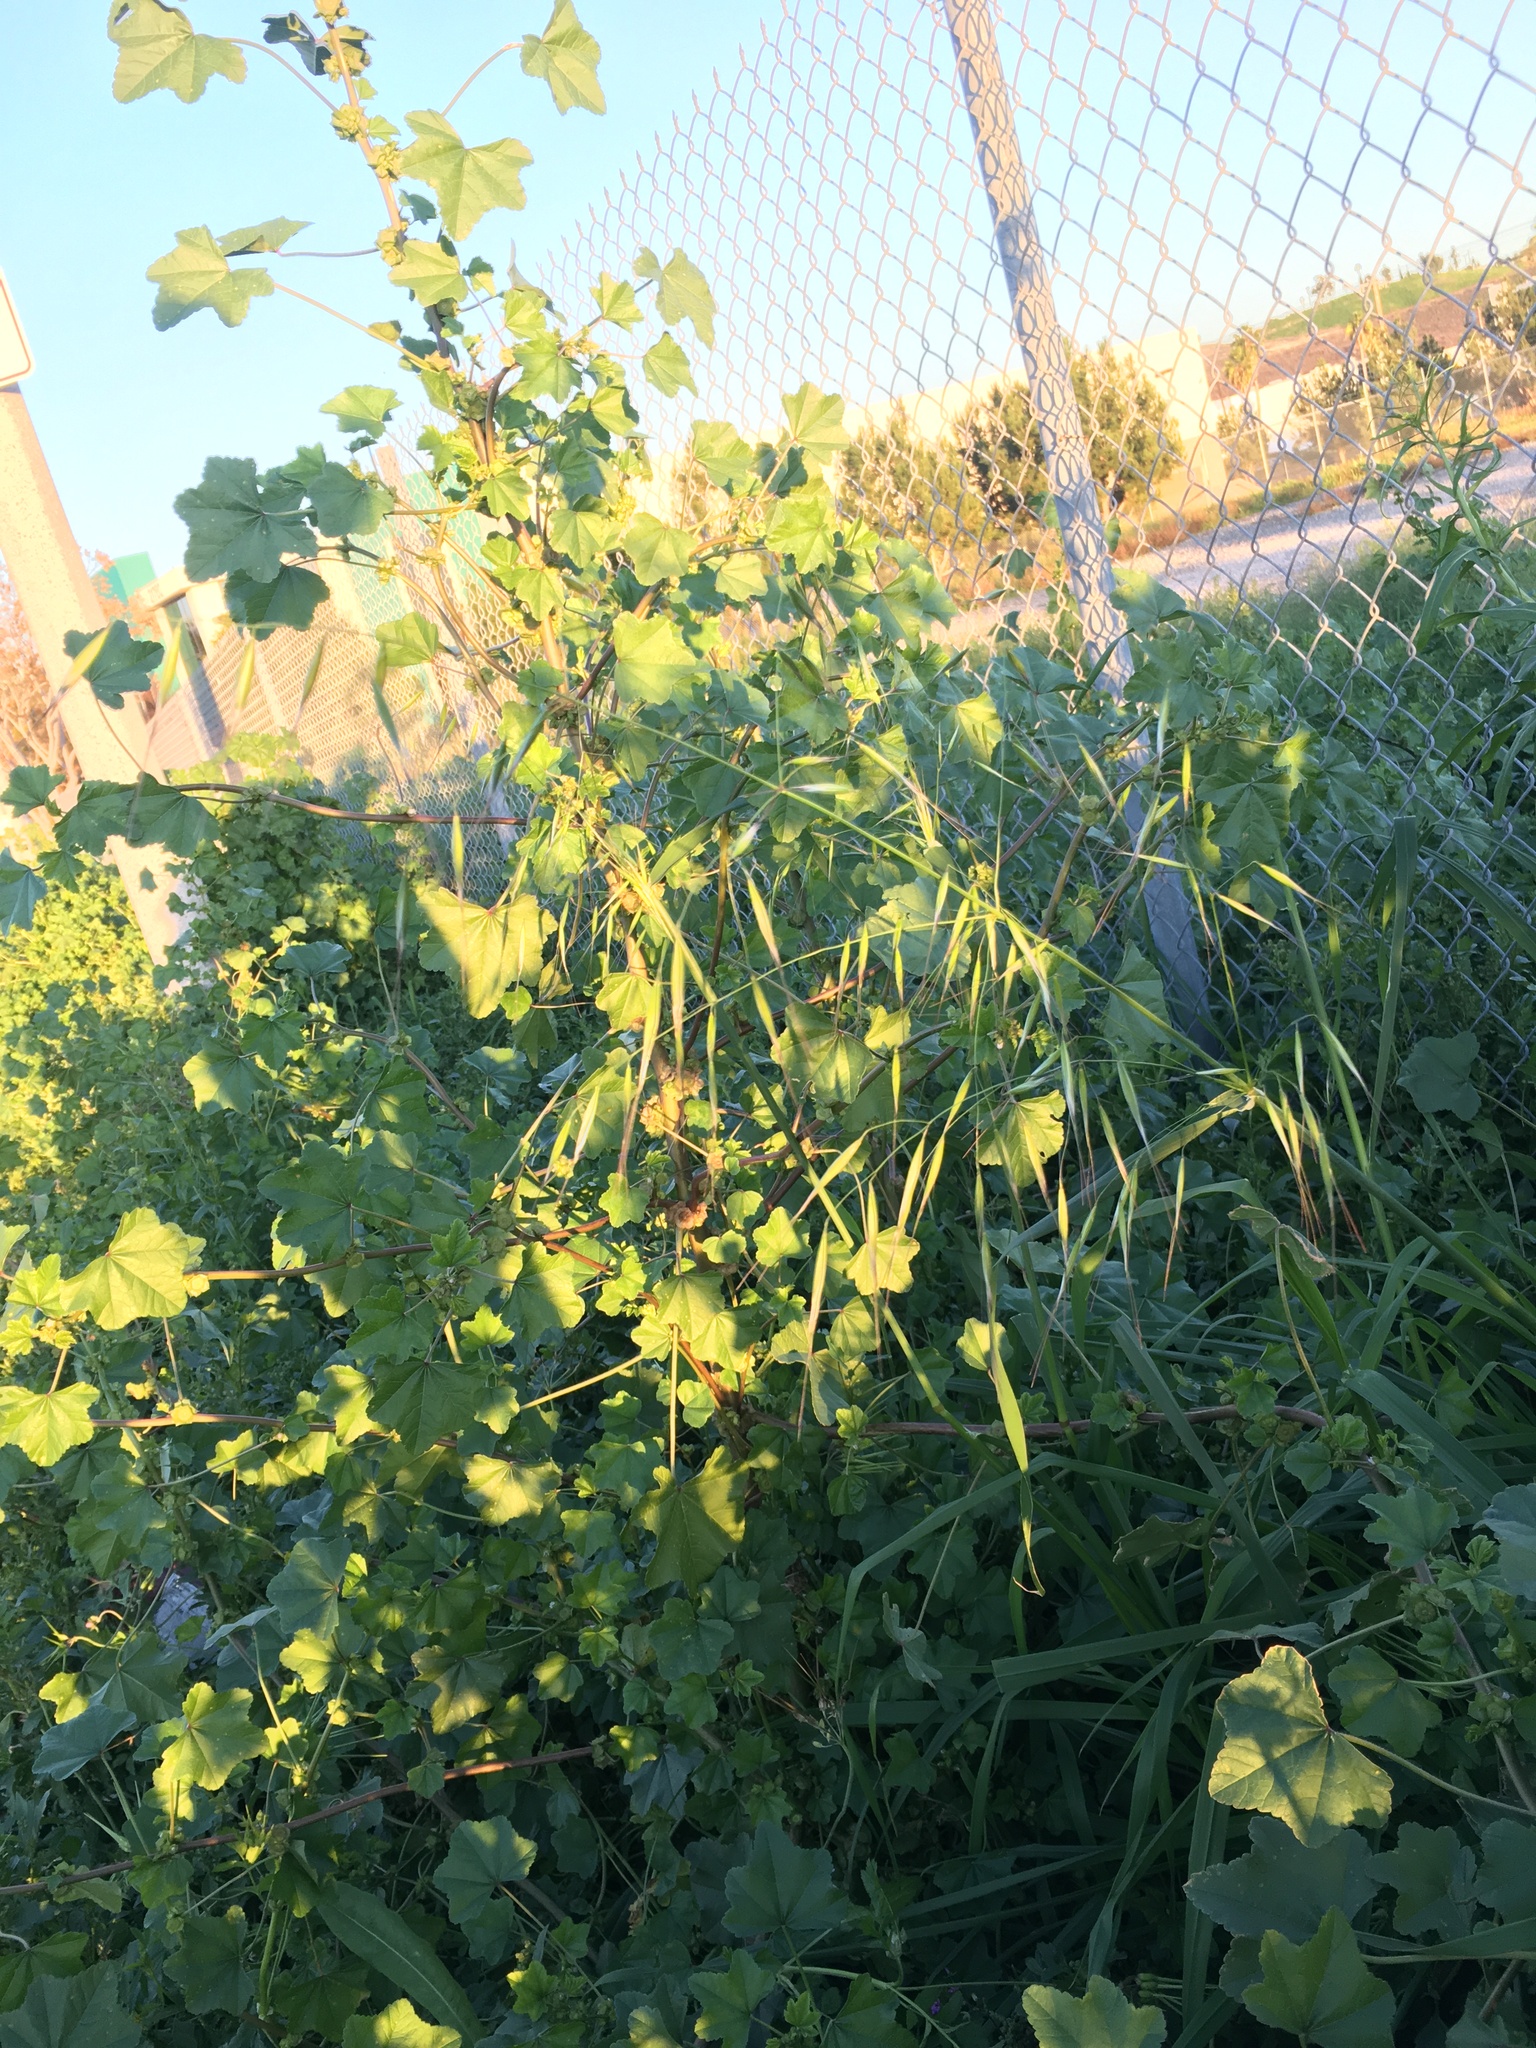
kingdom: Plantae
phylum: Tracheophyta
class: Liliopsida
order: Poales
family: Poaceae
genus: Avena
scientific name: Avena barbata
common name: Slender oat
